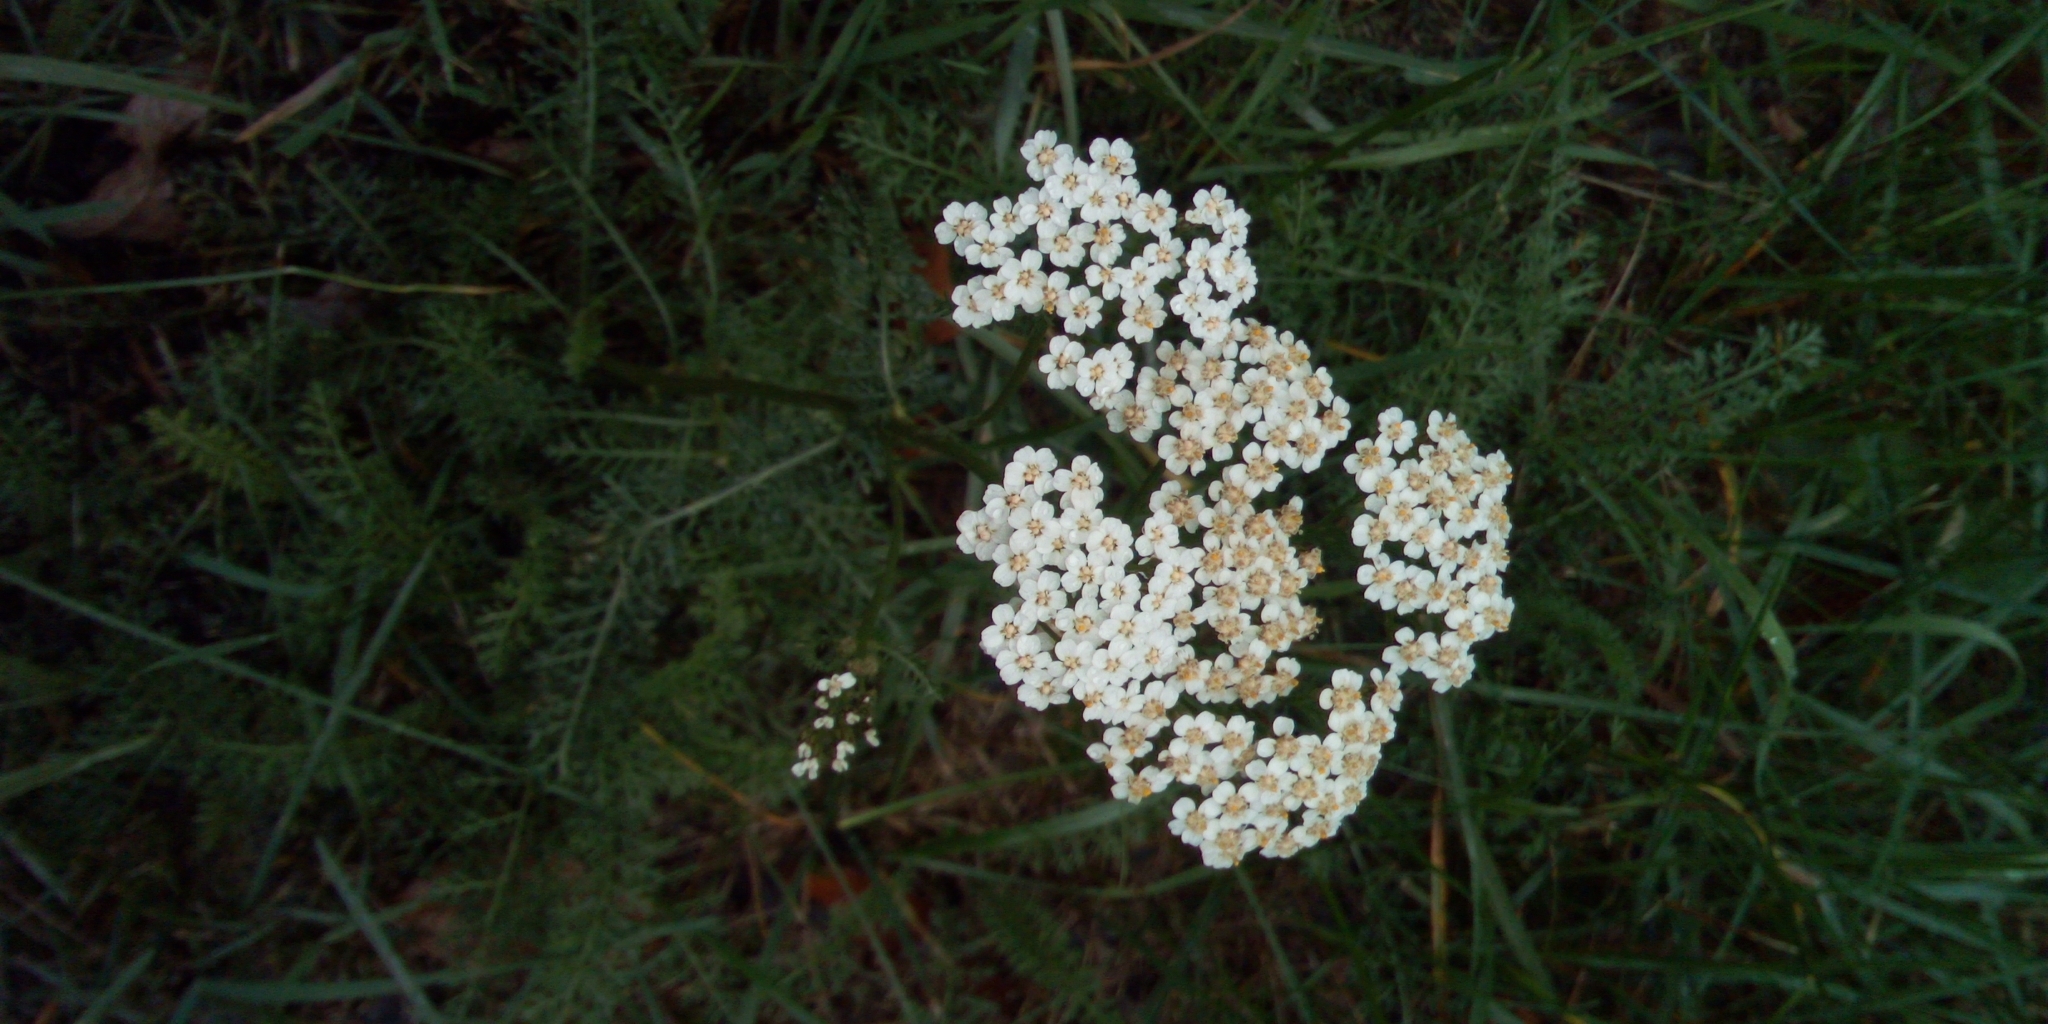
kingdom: Plantae
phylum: Tracheophyta
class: Magnoliopsida
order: Asterales
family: Asteraceae
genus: Achillea
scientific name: Achillea millefolium
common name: Yarrow
